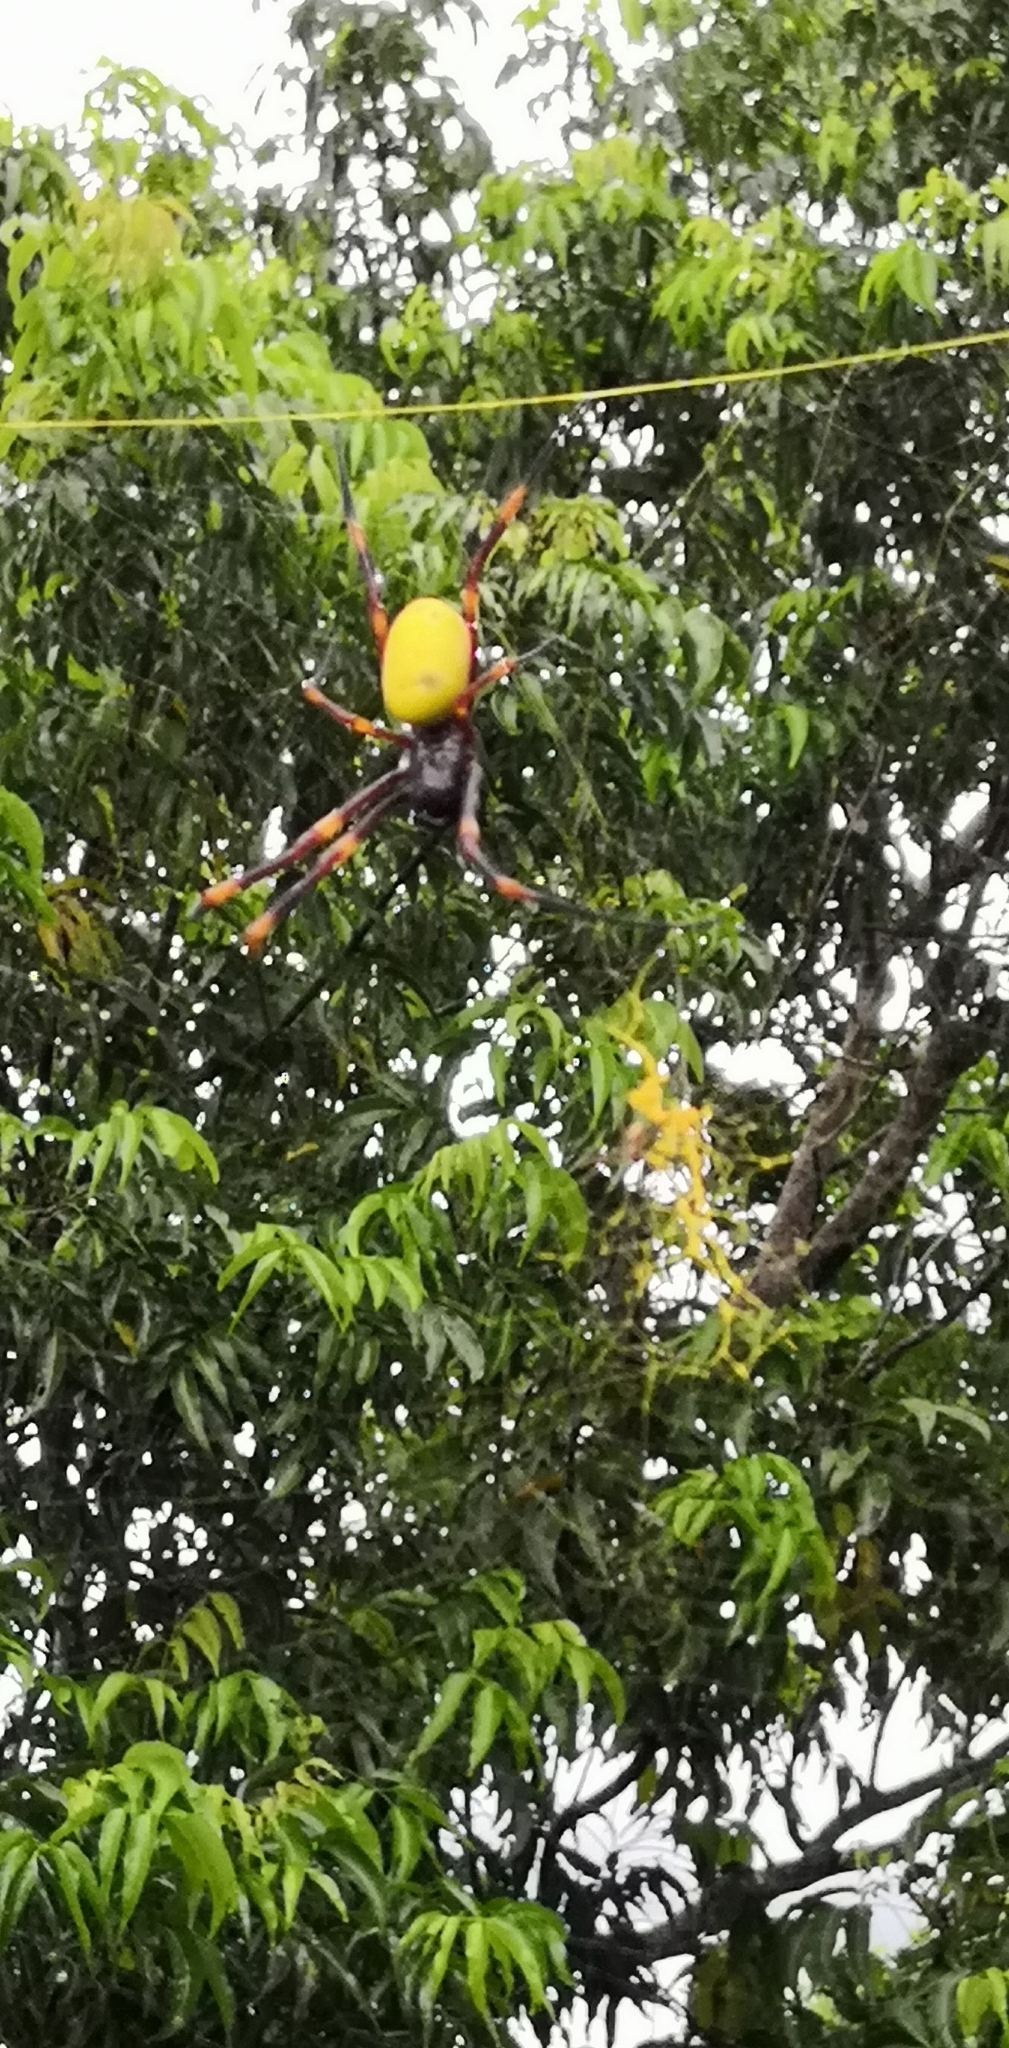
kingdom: Animalia
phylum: Arthropoda
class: Arachnida
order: Araneae
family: Araneidae
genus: Nephila
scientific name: Nephila tetragnathoides
